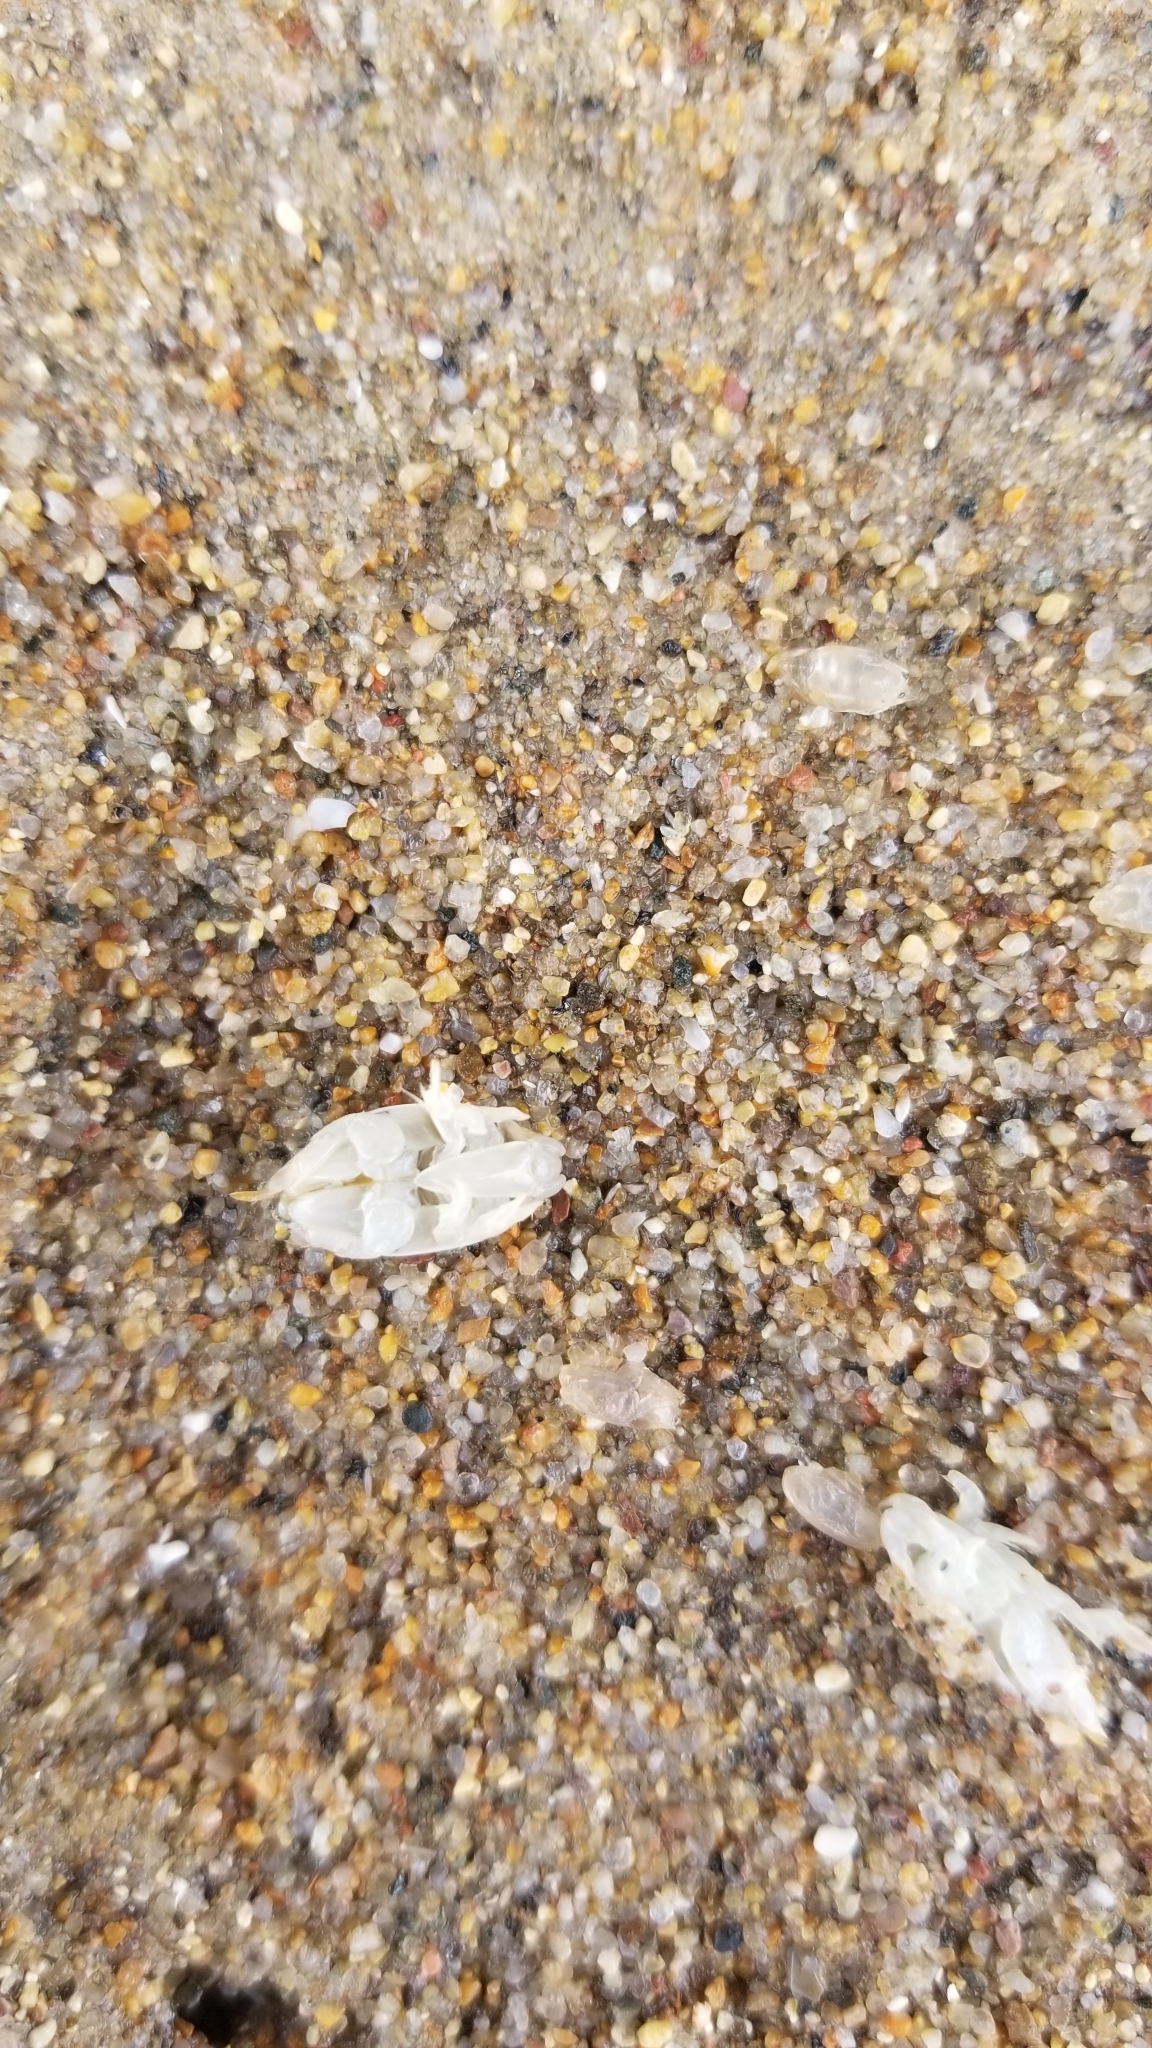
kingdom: Animalia
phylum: Arthropoda
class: Malacostraca
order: Decapoda
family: Hippidae
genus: Emerita
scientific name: Emerita analoga
